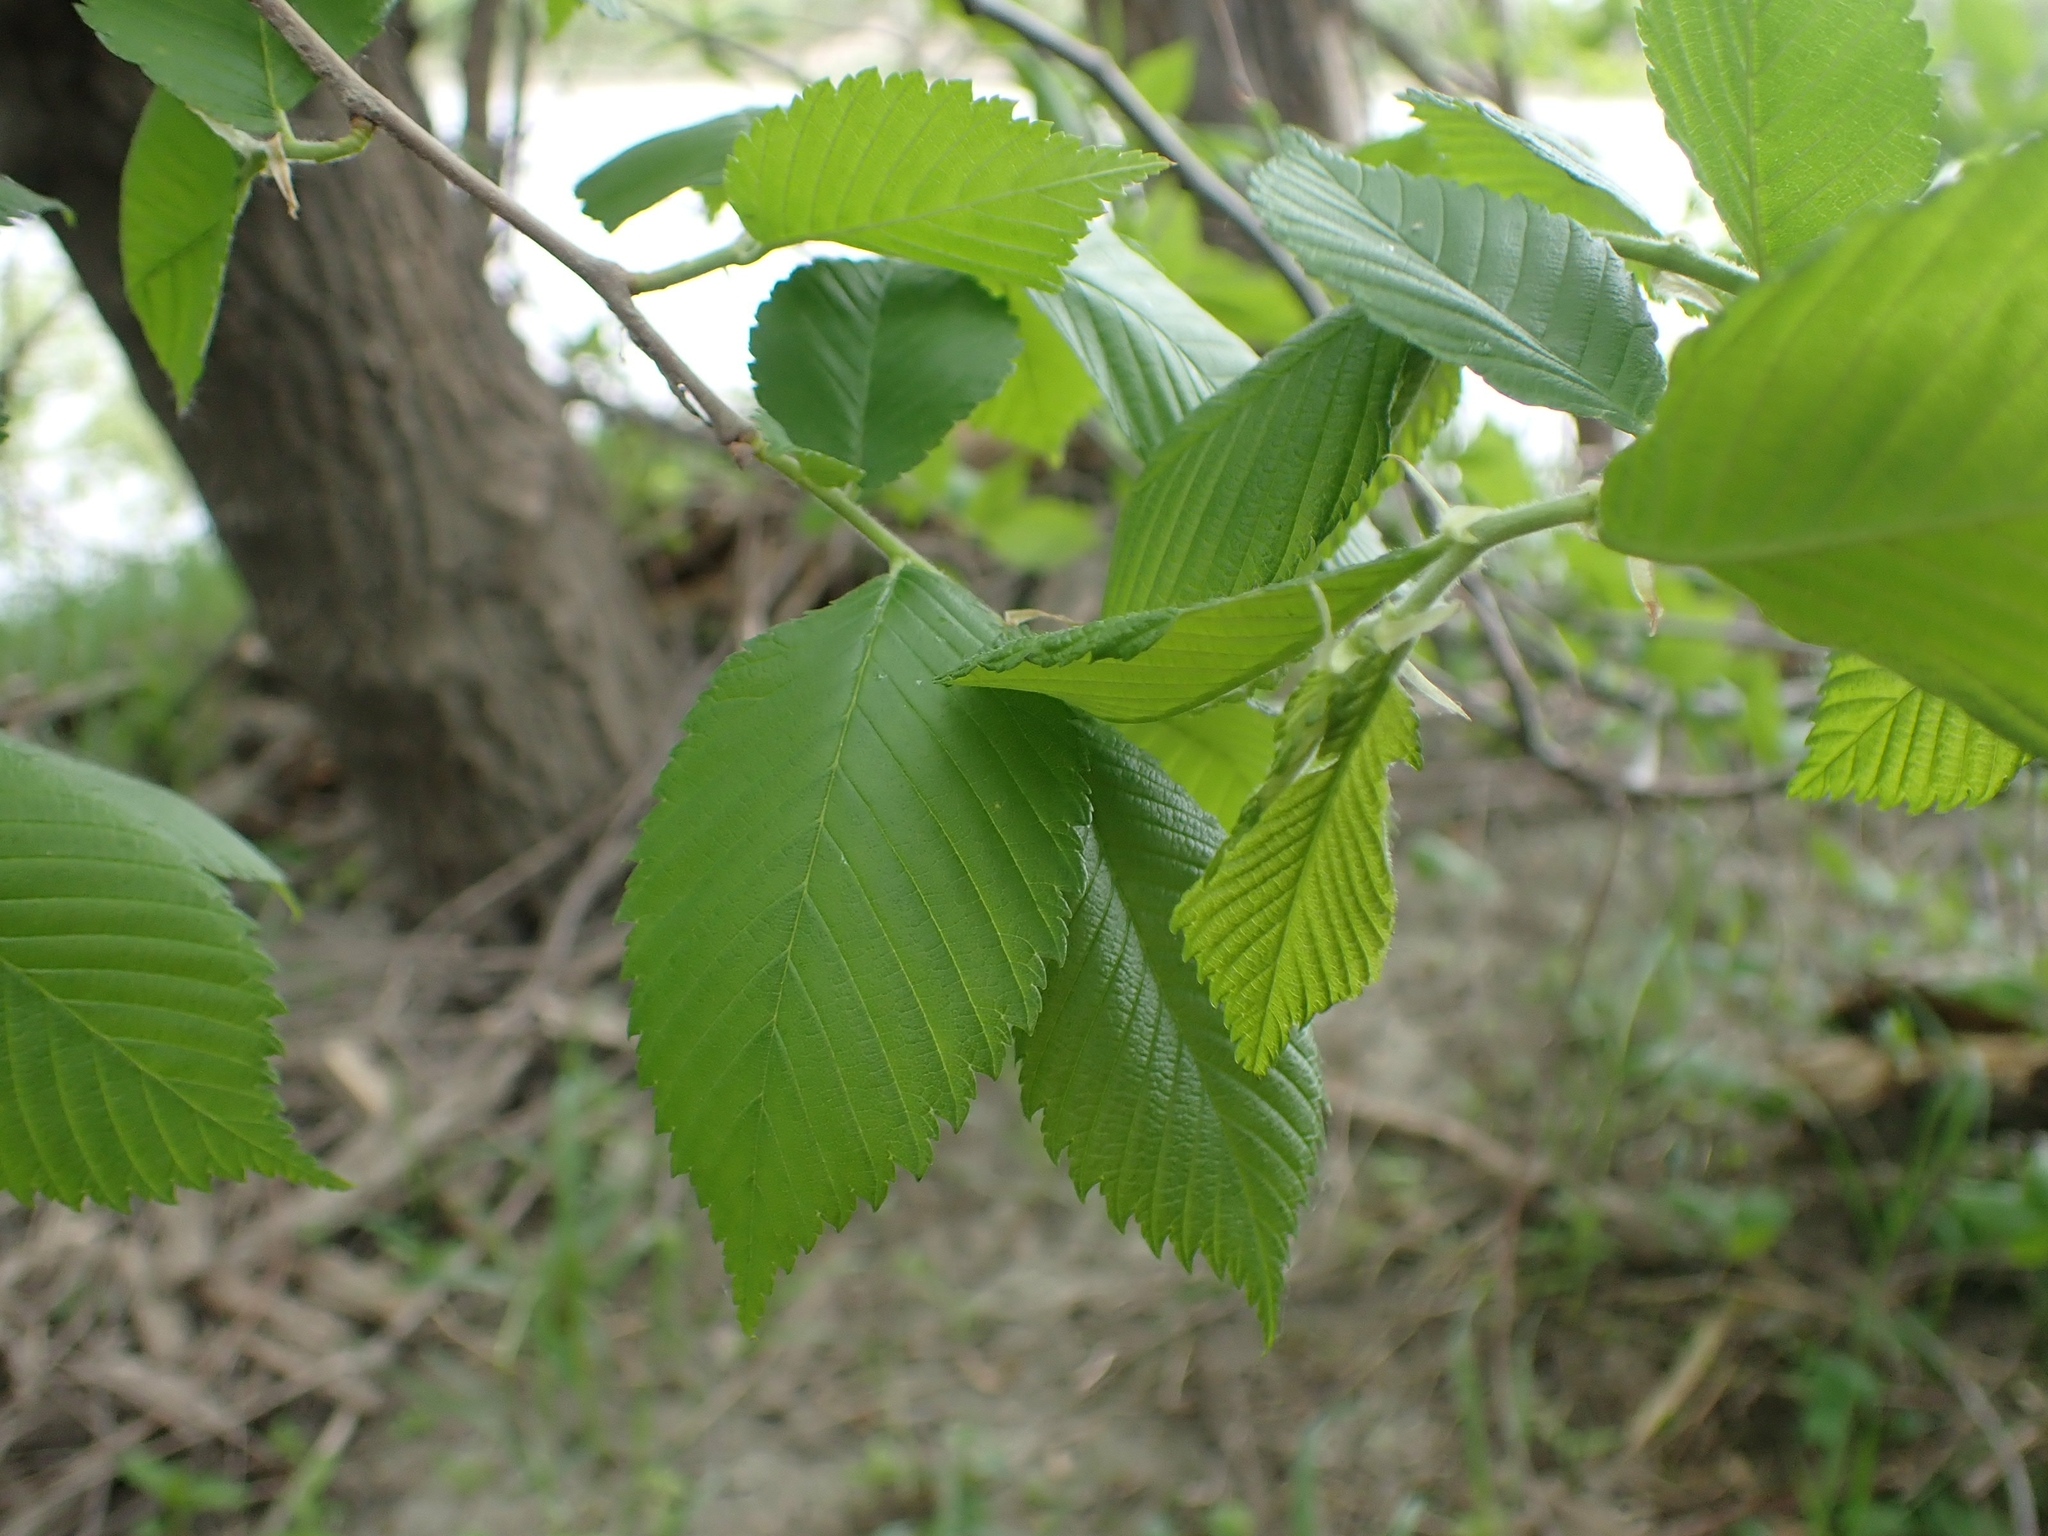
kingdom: Plantae
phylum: Tracheophyta
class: Magnoliopsida
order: Rosales
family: Ulmaceae
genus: Ulmus
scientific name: Ulmus americana
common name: American elm
